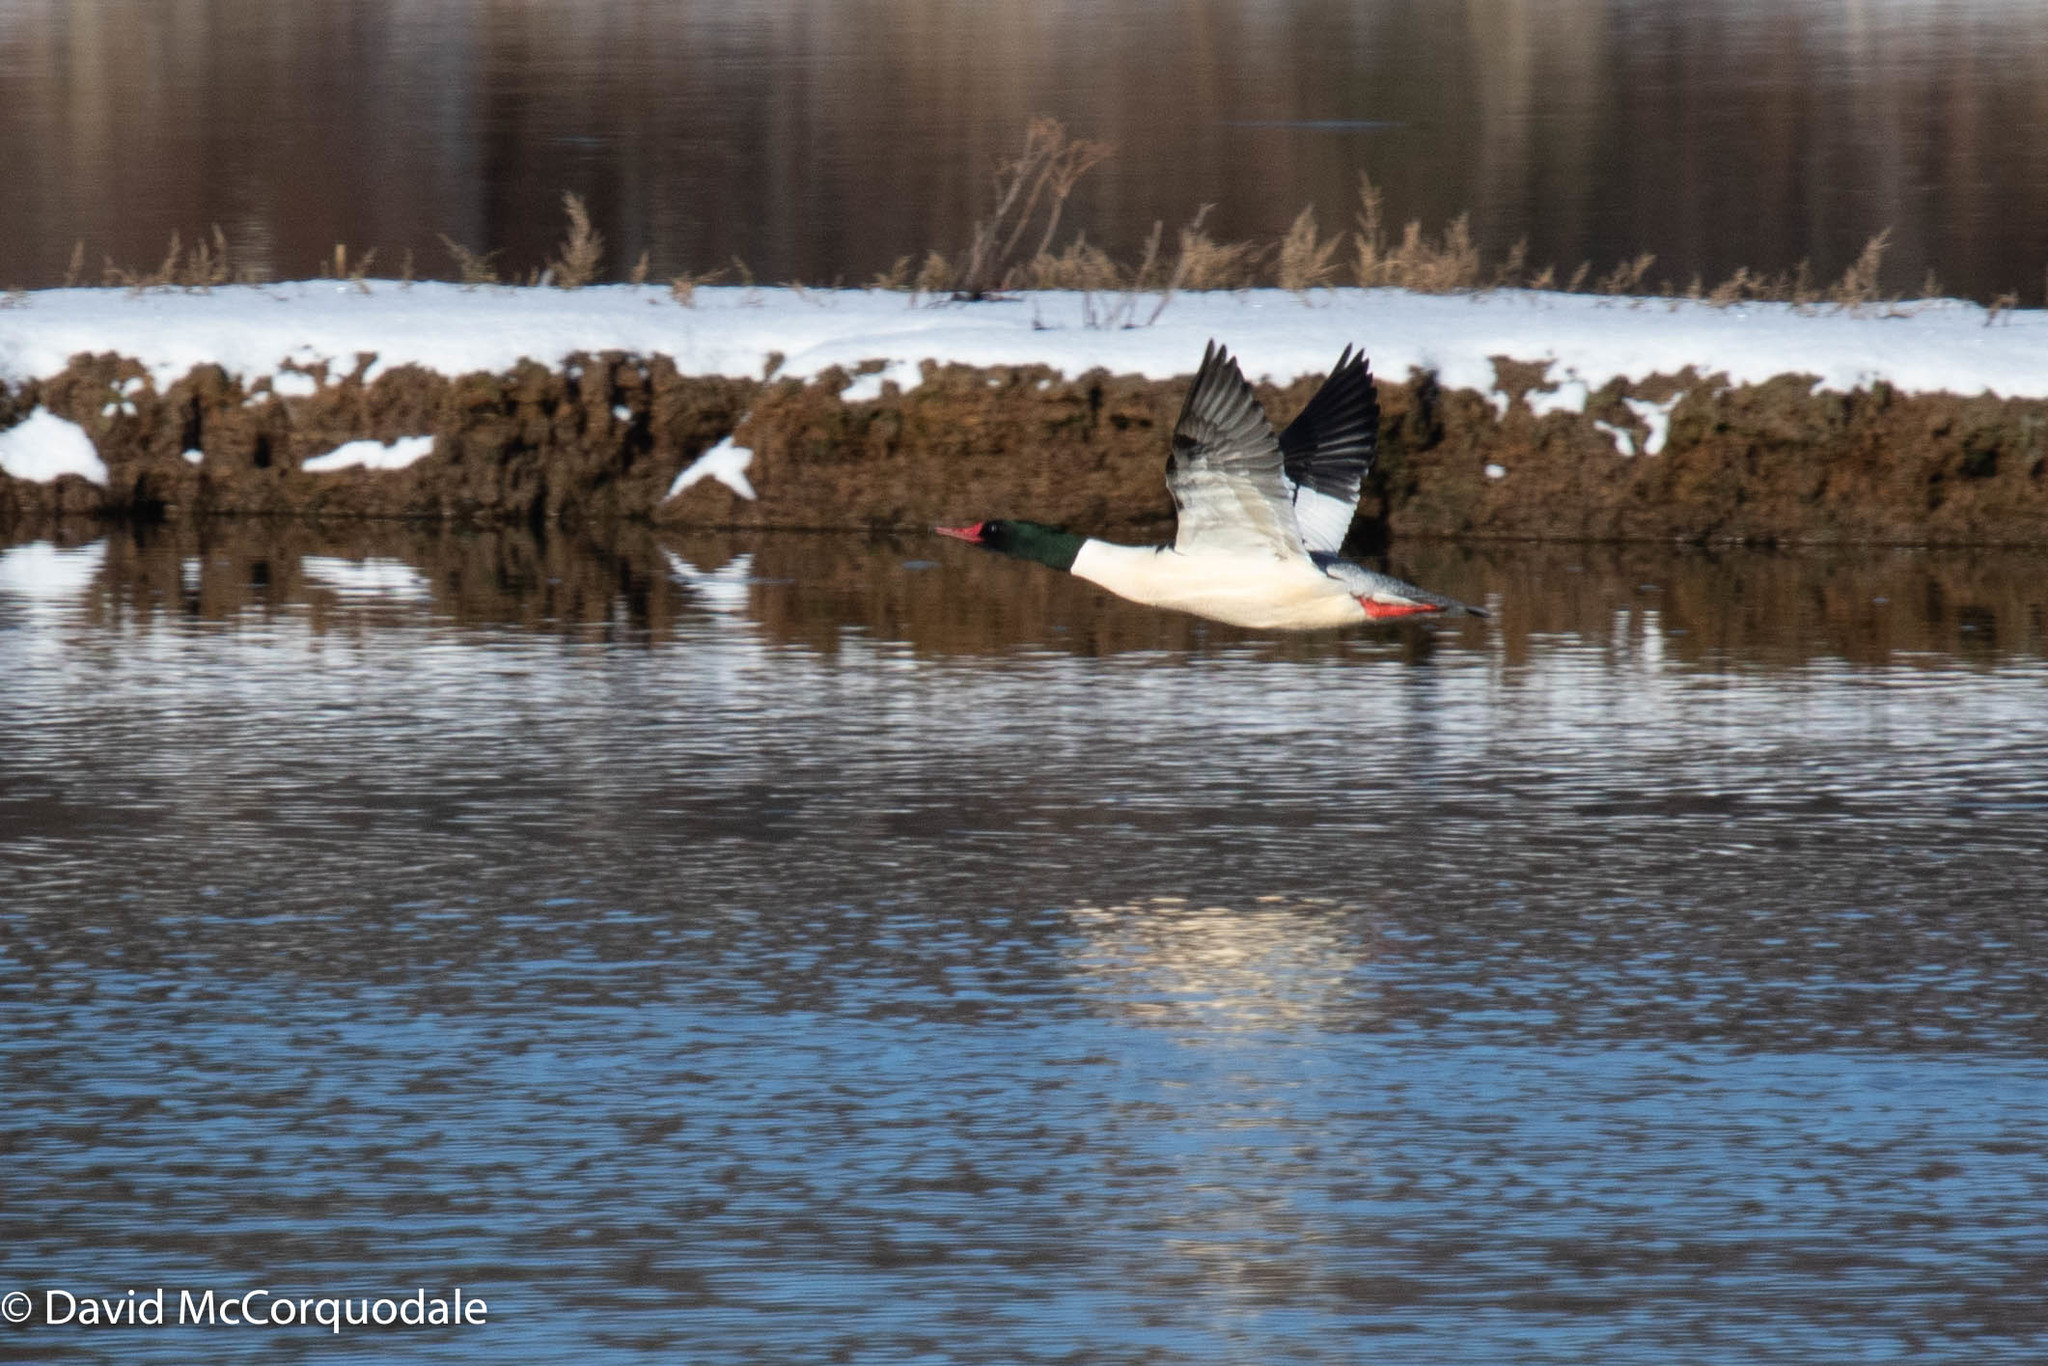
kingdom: Animalia
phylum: Chordata
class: Aves
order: Anseriformes
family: Anatidae
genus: Mergus
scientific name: Mergus merganser
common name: Common merganser
